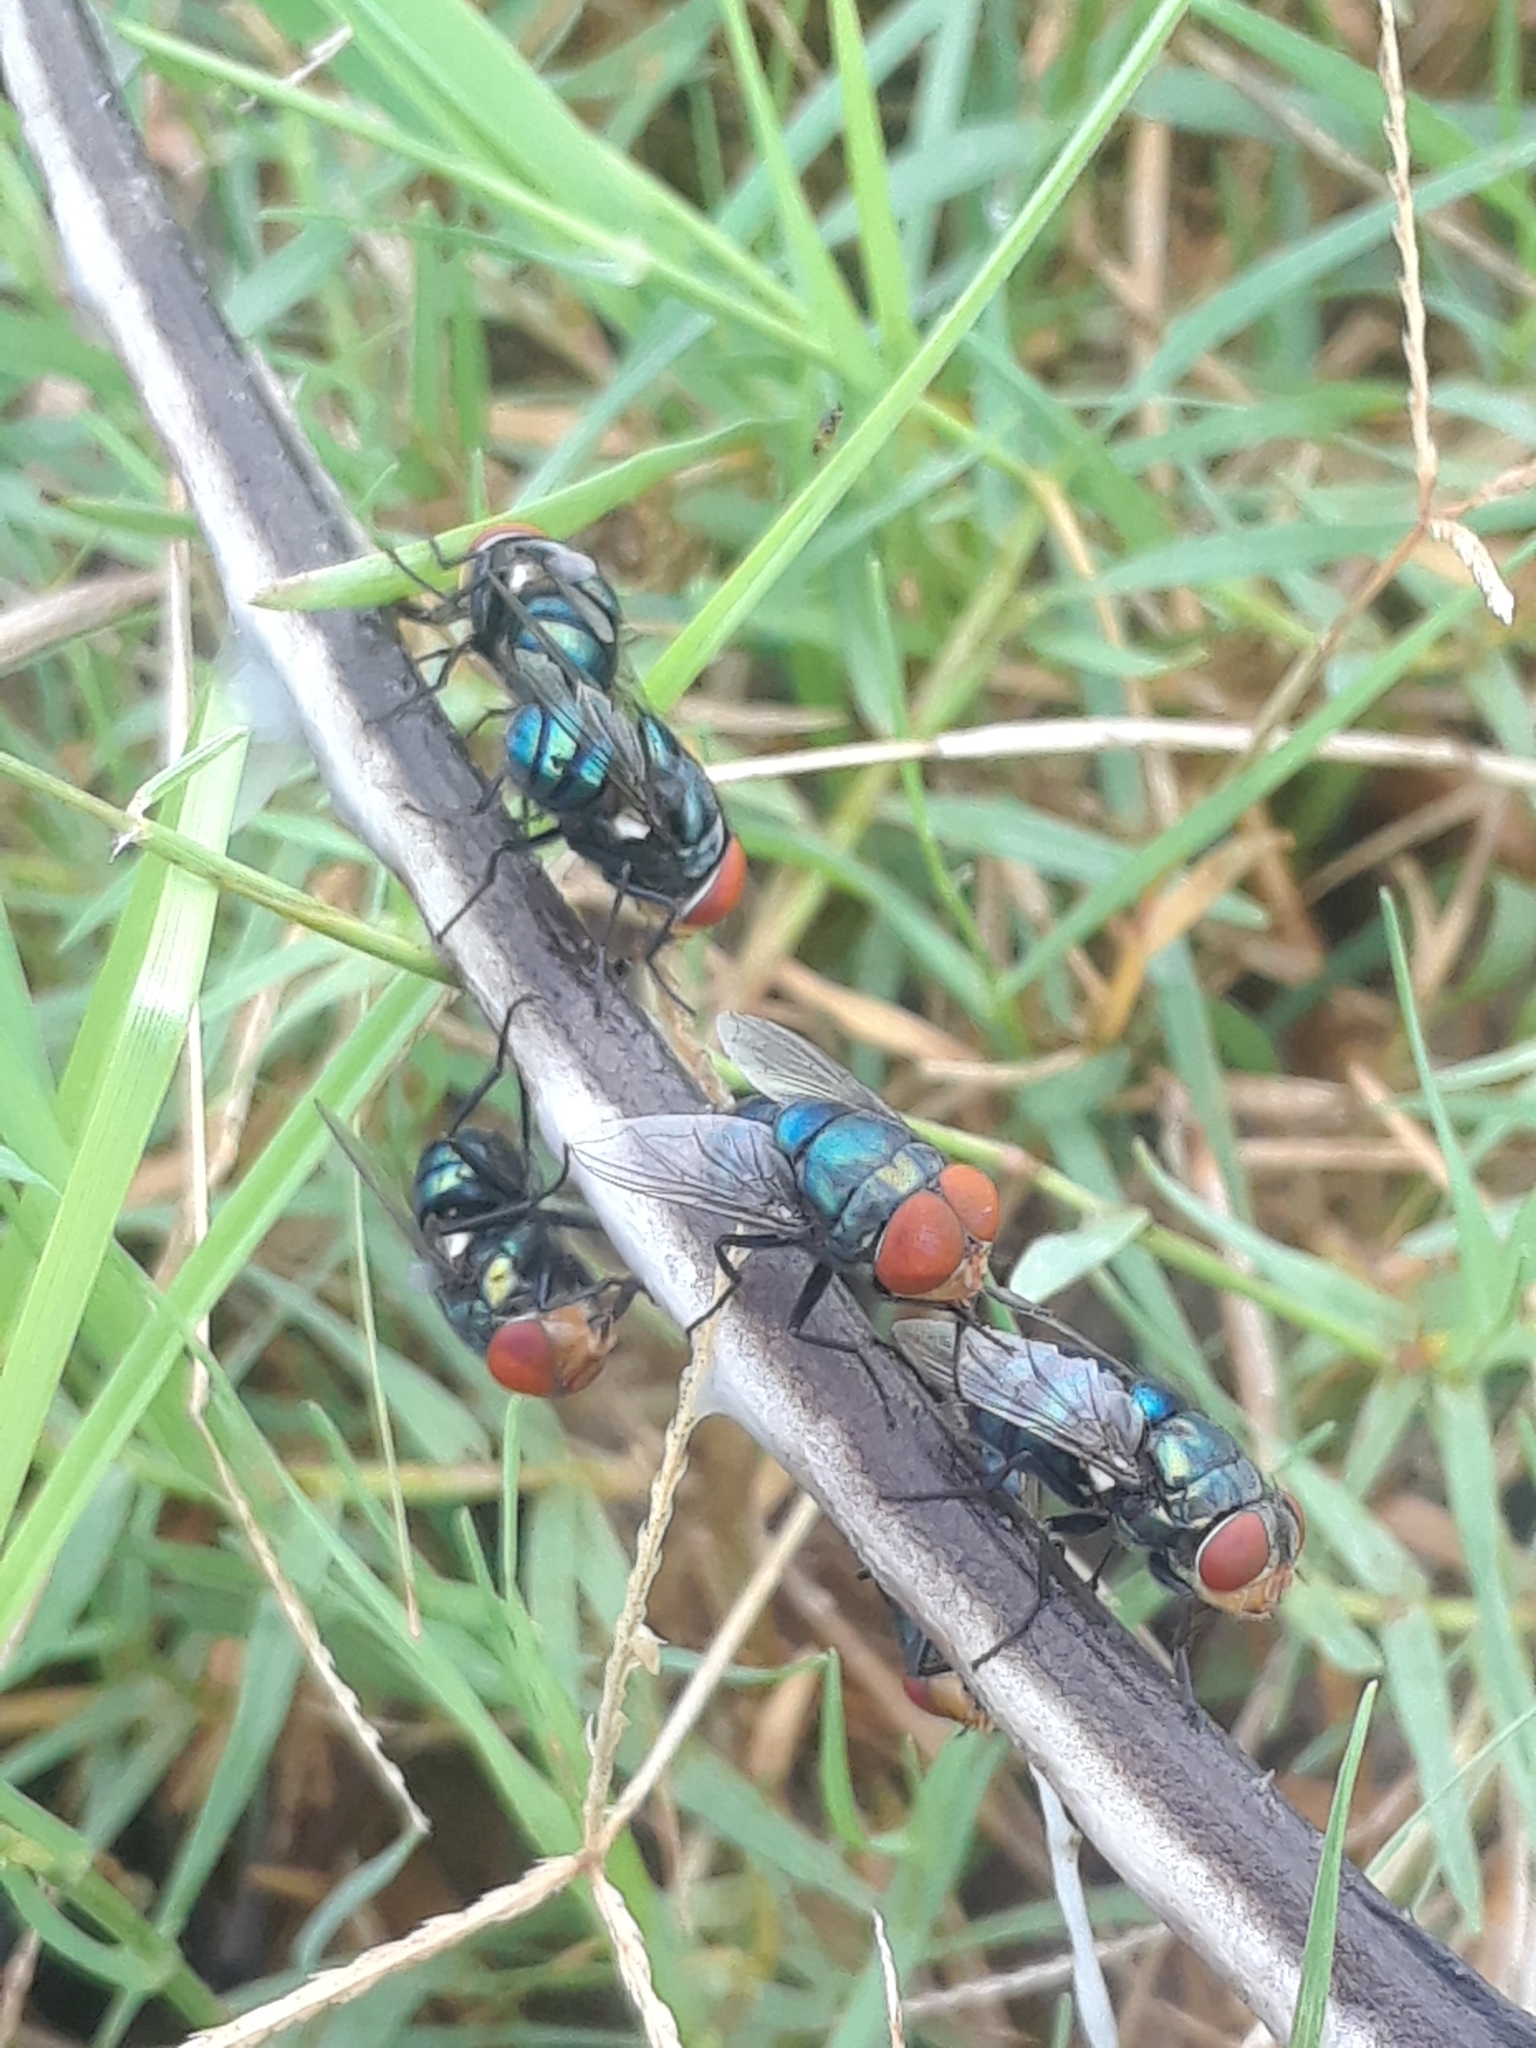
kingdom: Animalia
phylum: Arthropoda
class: Insecta
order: Diptera
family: Calliphoridae
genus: Chrysomya
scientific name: Chrysomya megacephala
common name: Blow fly
